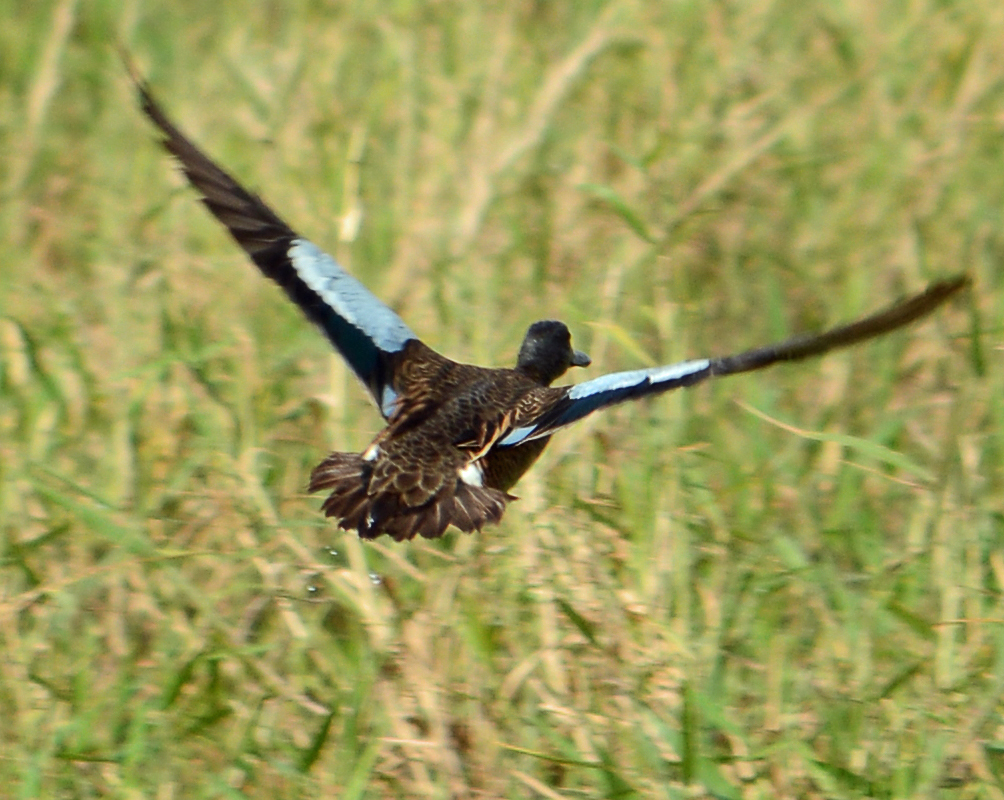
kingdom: Animalia
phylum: Chordata
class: Aves
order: Anseriformes
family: Anatidae
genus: Spatula
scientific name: Spatula discors
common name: Blue-winged teal
